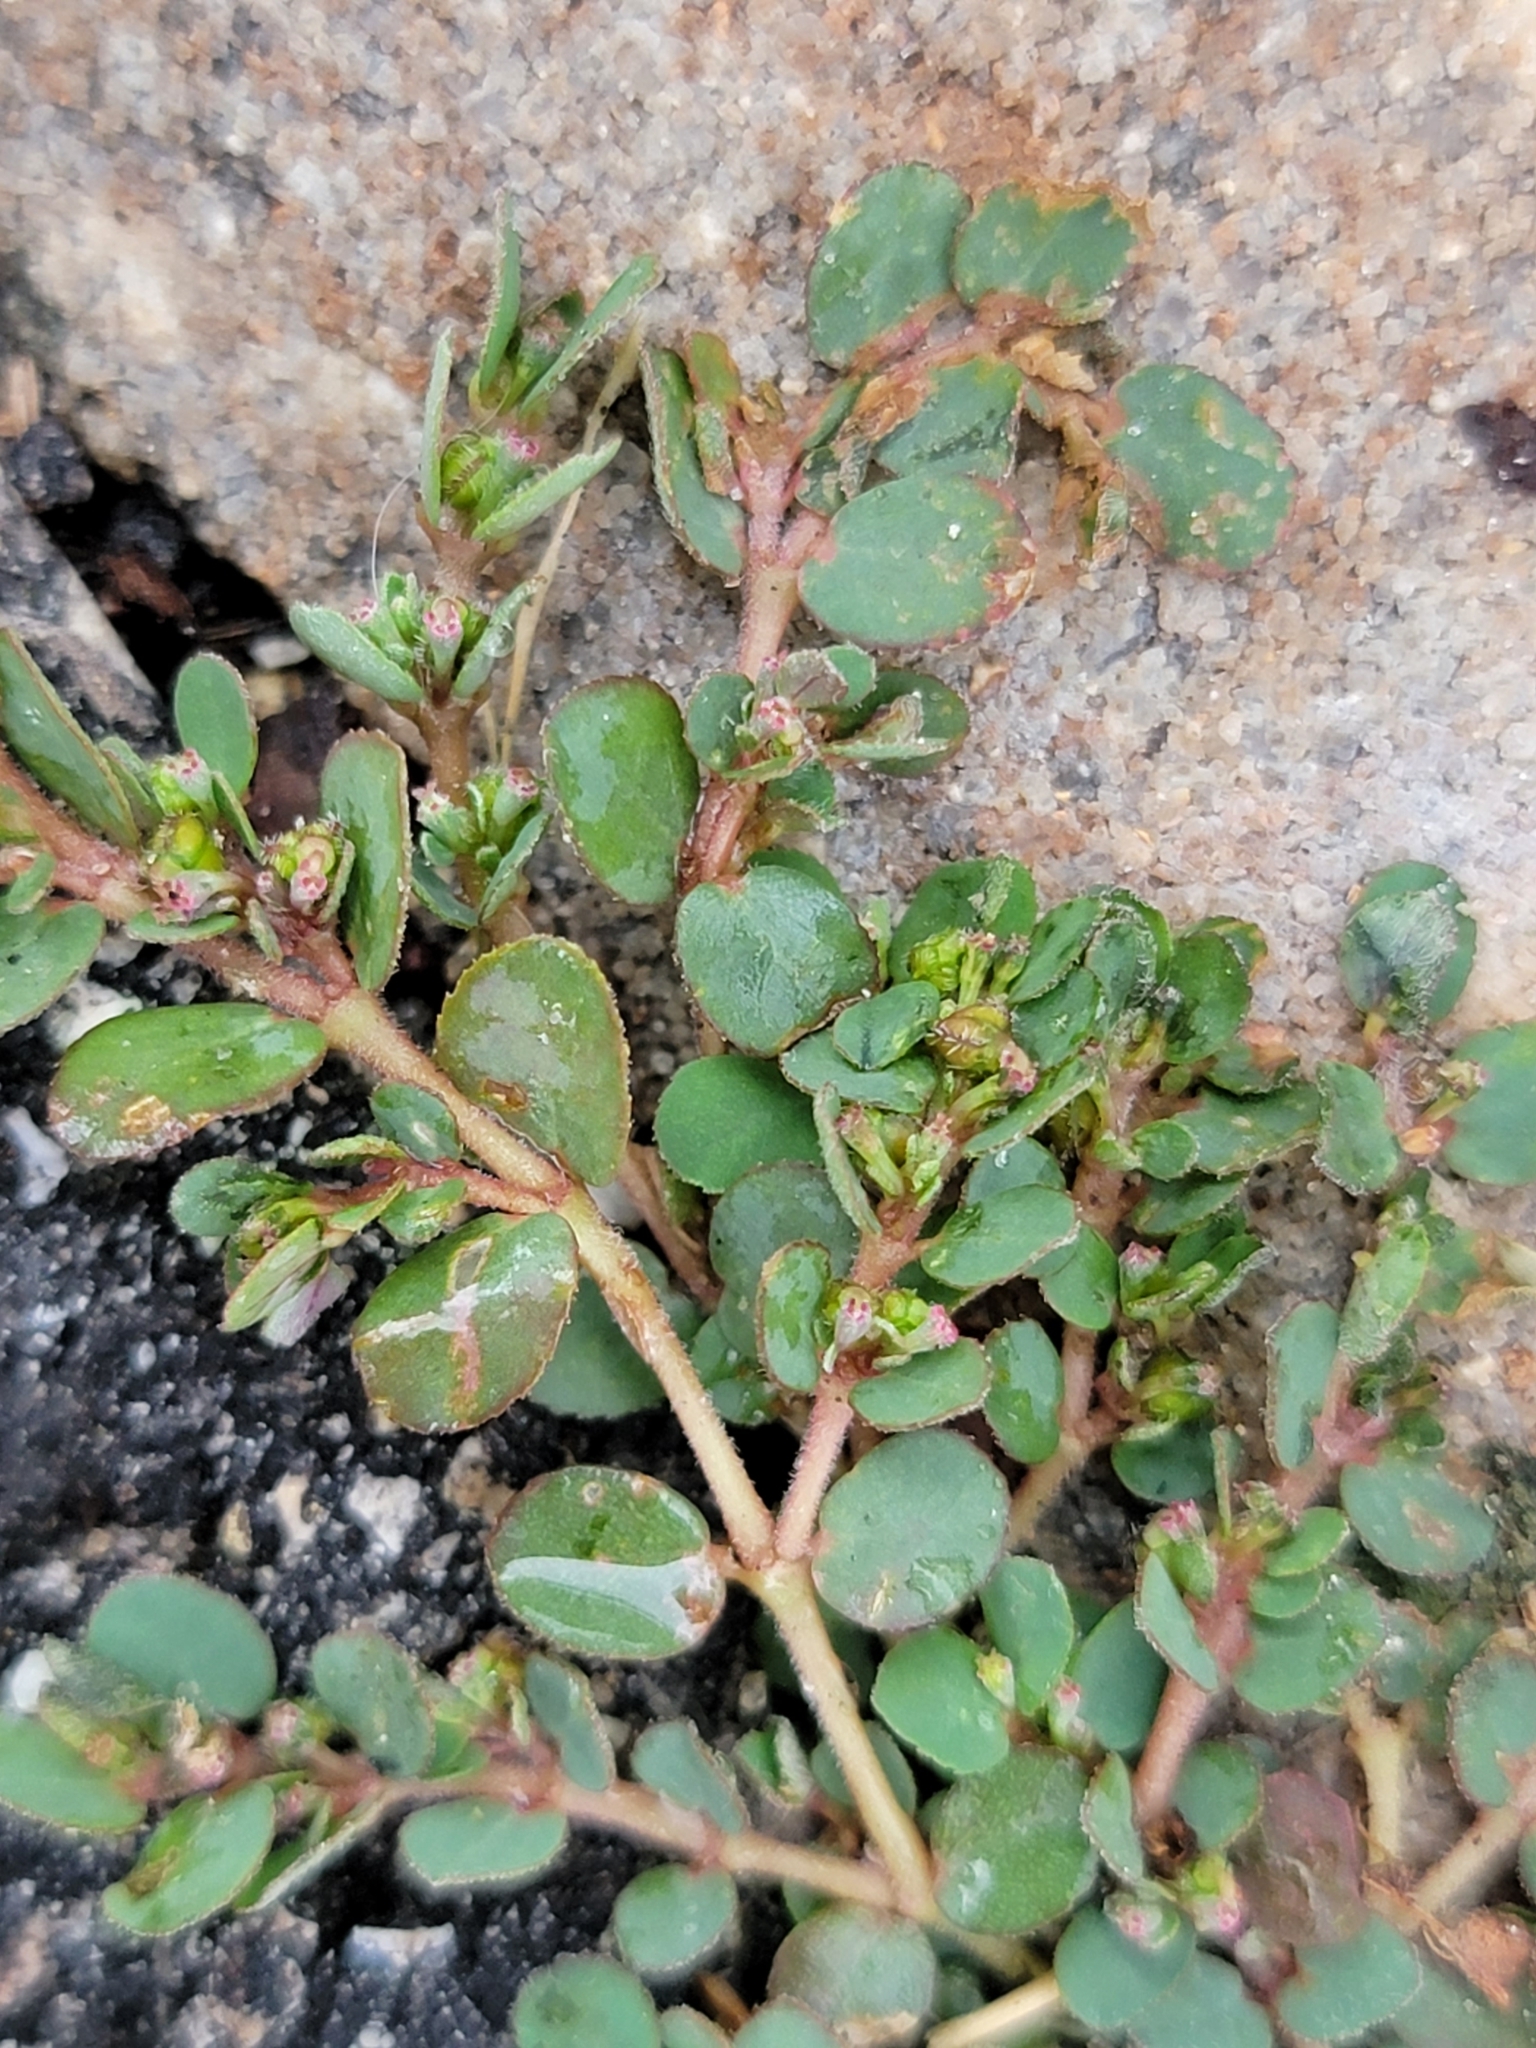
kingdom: Plantae
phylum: Tracheophyta
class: Magnoliopsida
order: Malpighiales
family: Euphorbiaceae
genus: Euphorbia
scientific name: Euphorbia prostrata
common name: Prostrate sandmat
